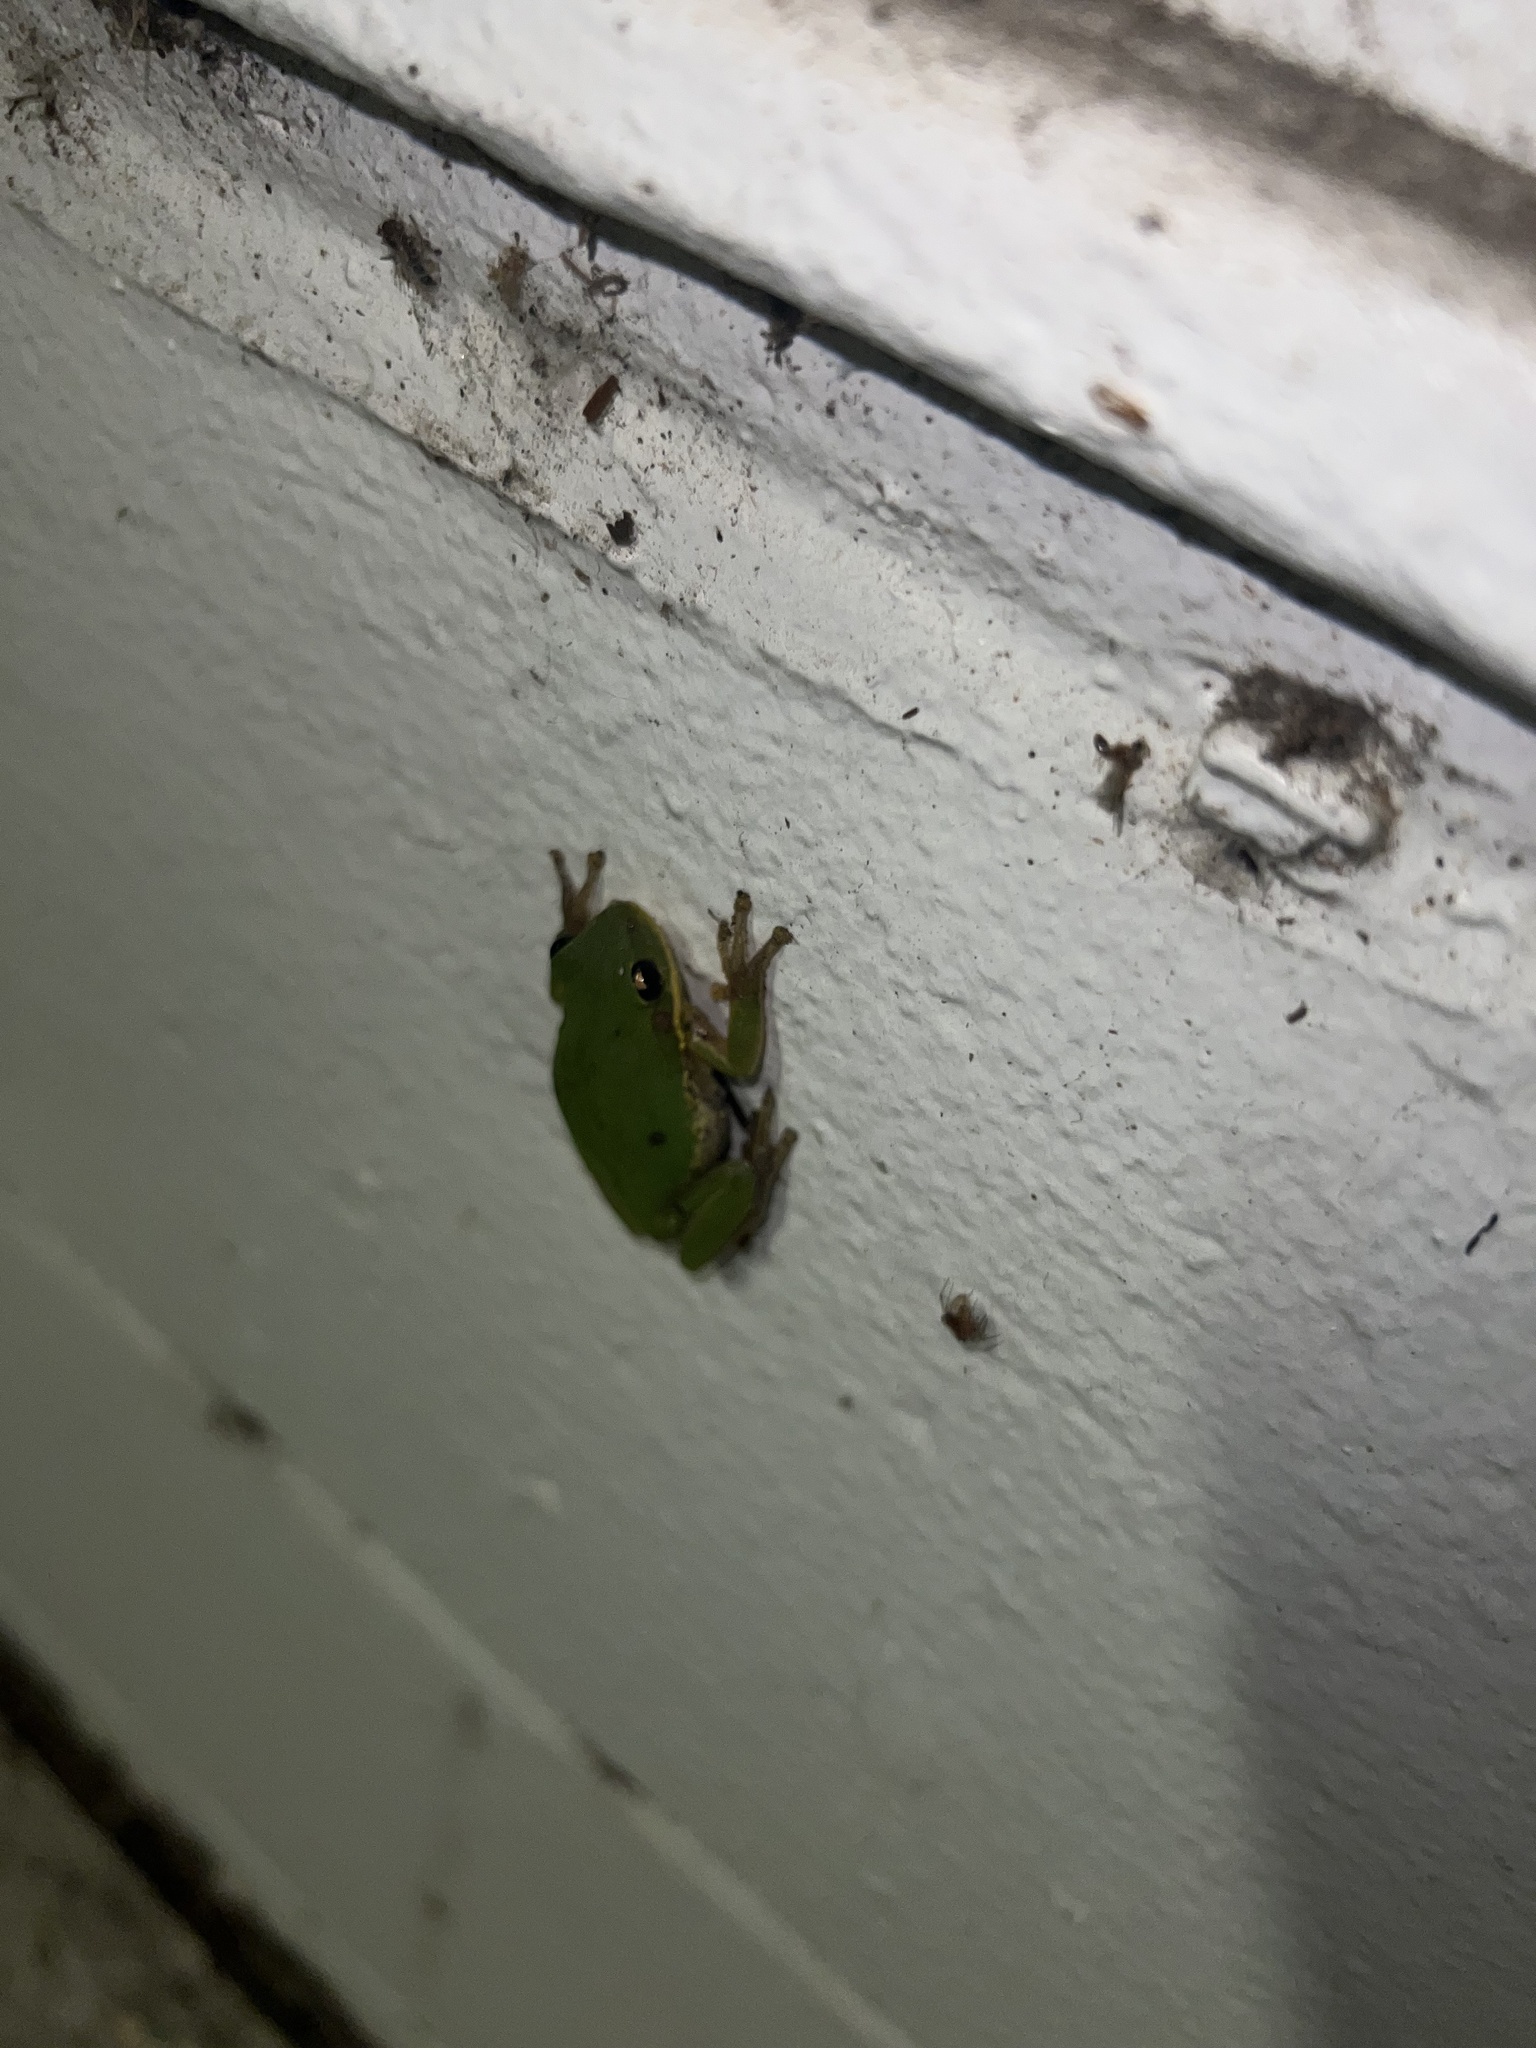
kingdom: Animalia
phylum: Chordata
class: Amphibia
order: Anura
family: Hylidae
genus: Dryophytes
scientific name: Dryophytes cinereus
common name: Green treefrog
